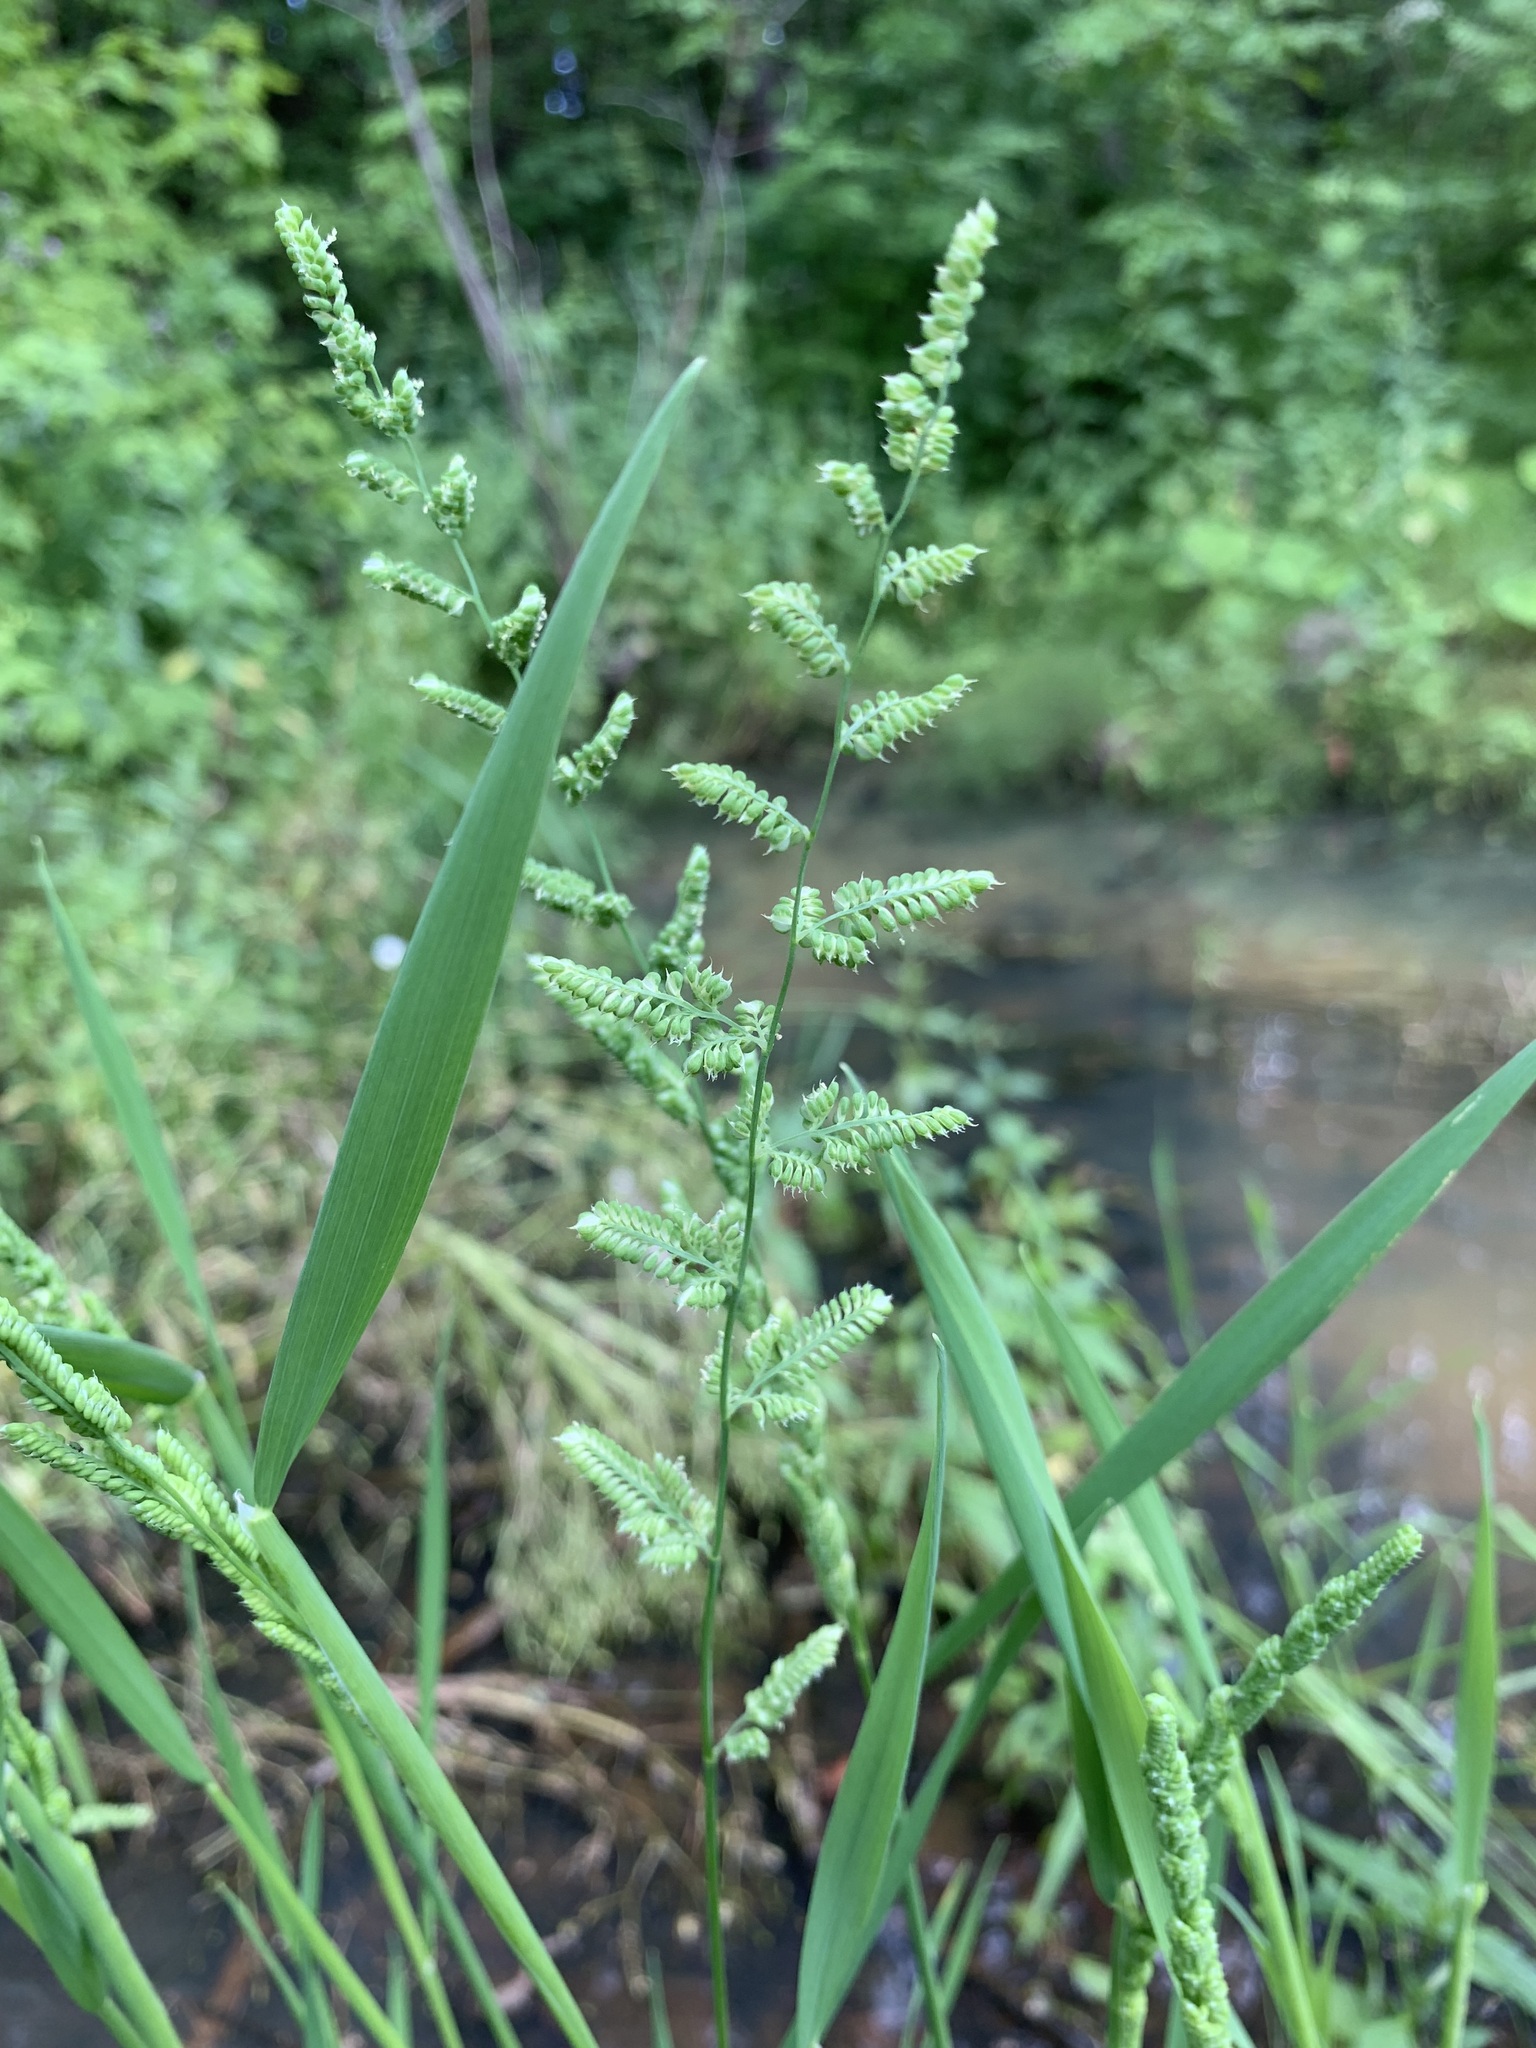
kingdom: Plantae
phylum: Tracheophyta
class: Liliopsida
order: Poales
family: Poaceae
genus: Beckmannia
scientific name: Beckmannia syzigachne
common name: American slough-grass
